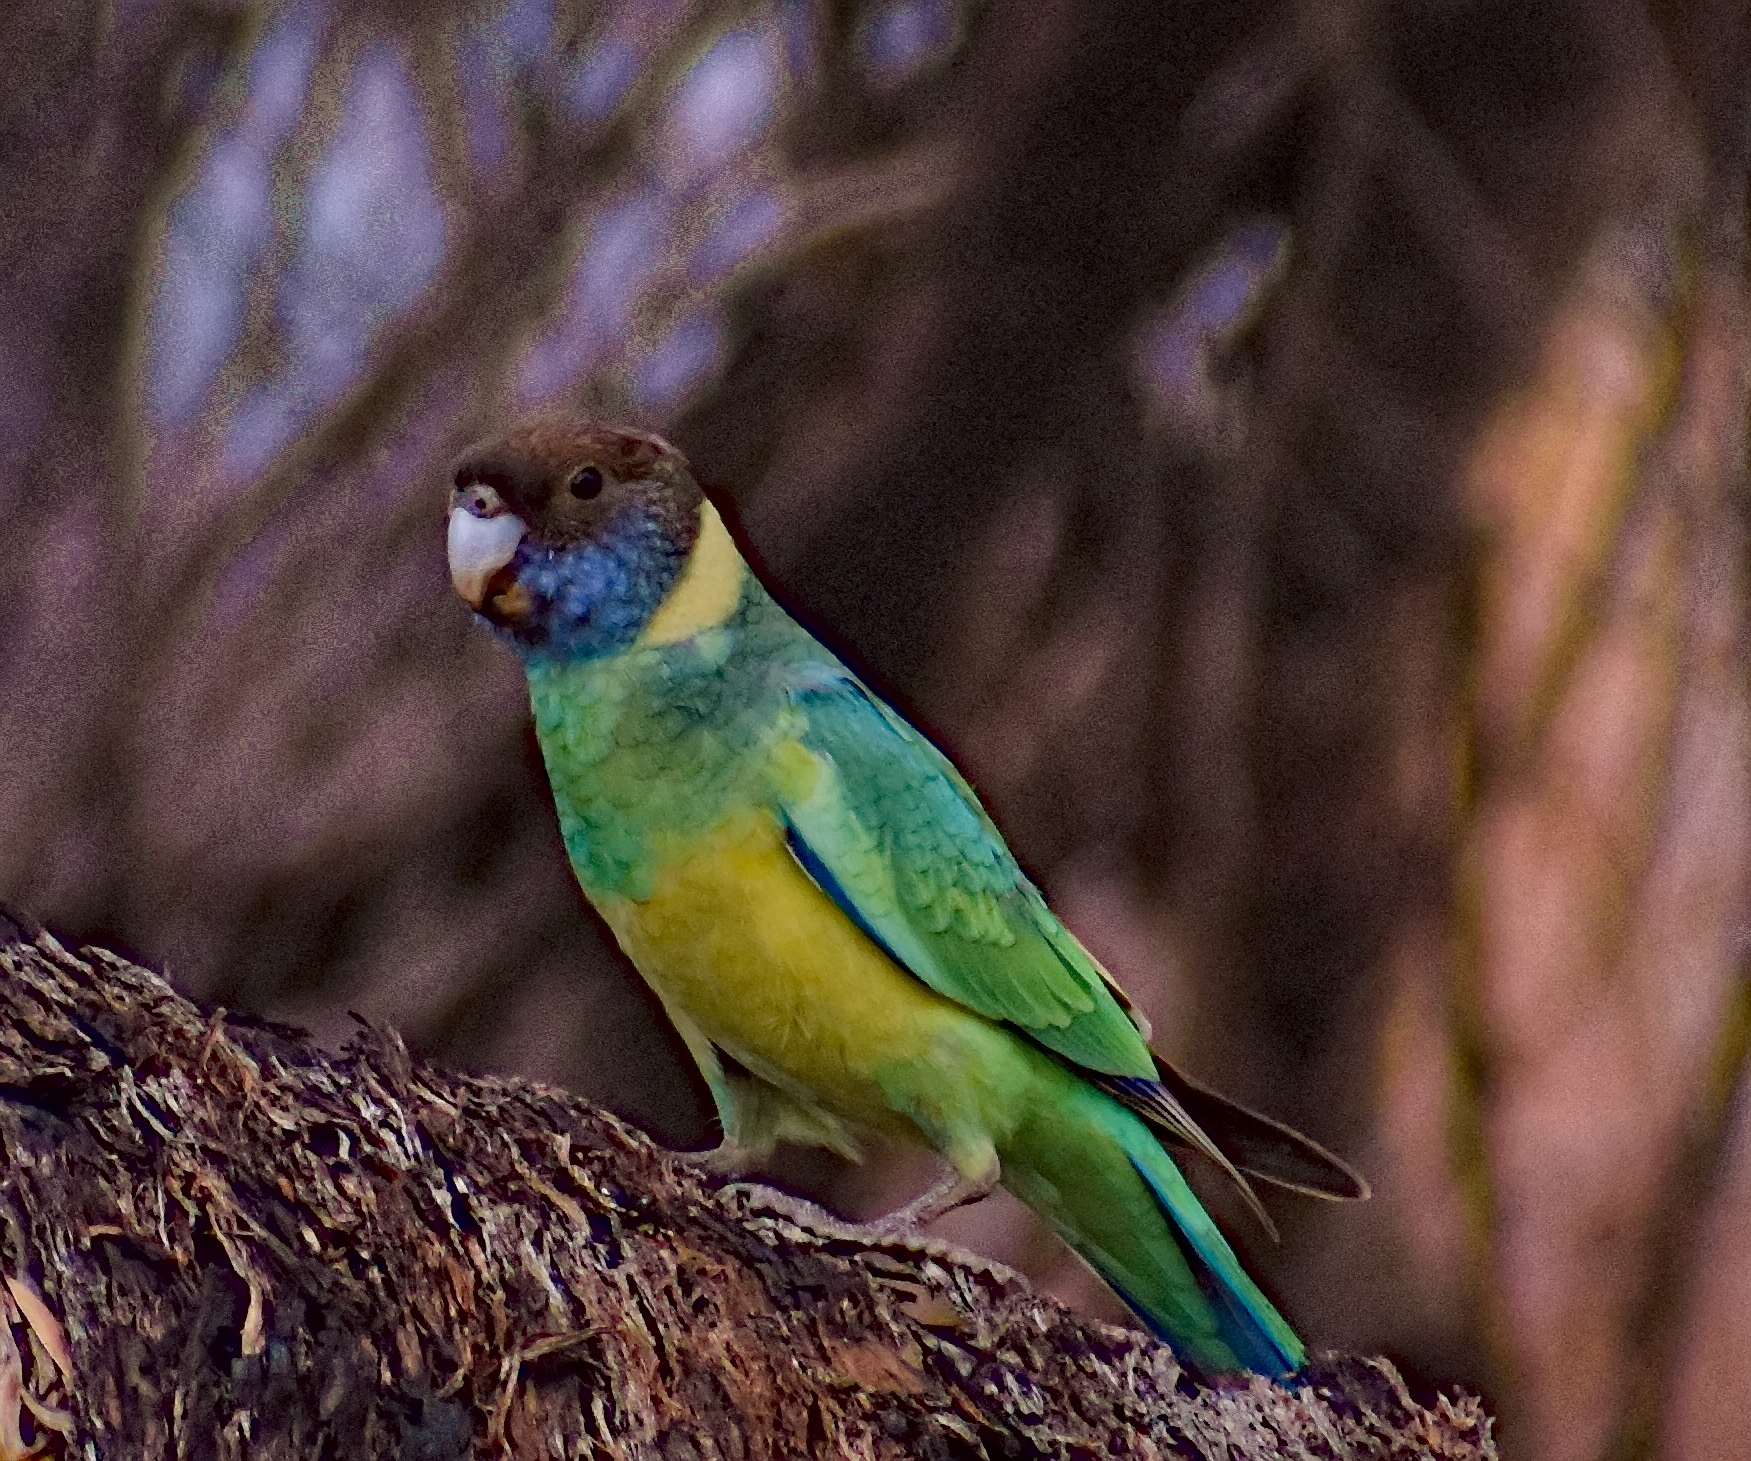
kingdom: Animalia
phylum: Chordata
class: Aves
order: Psittaciformes
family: Psittacidae
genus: Barnardius
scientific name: Barnardius zonarius
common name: Australian ringneck
